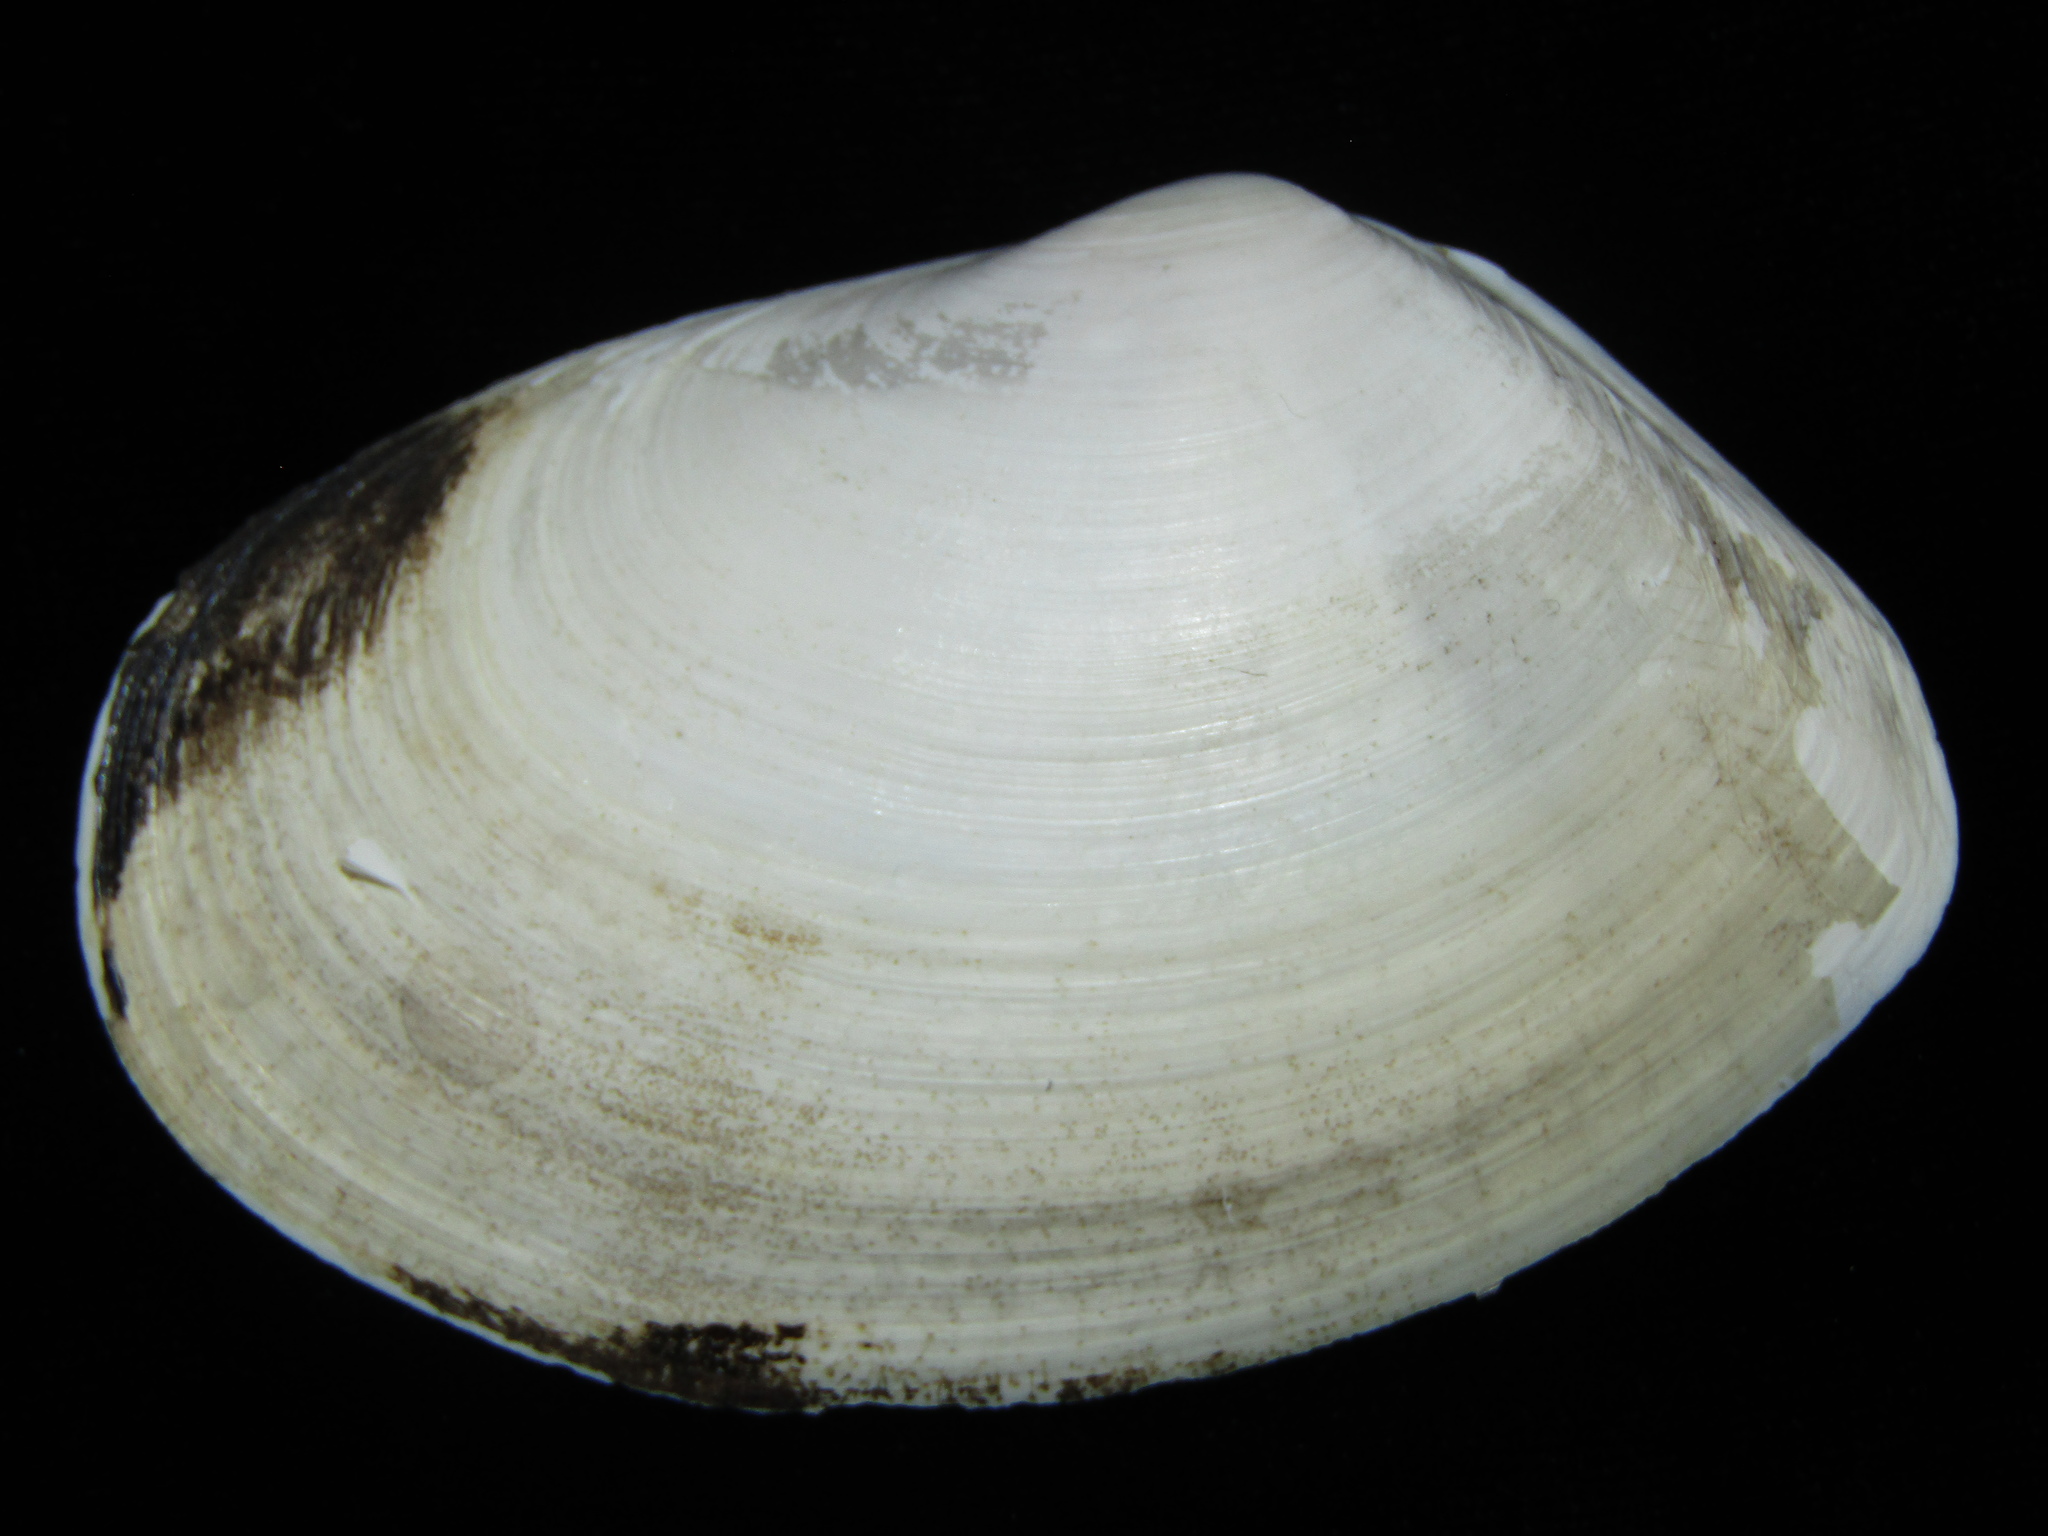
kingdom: Animalia
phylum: Mollusca
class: Bivalvia
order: Venerida
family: Mesodesmatidae
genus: Paphies
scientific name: Paphies ventricosa
